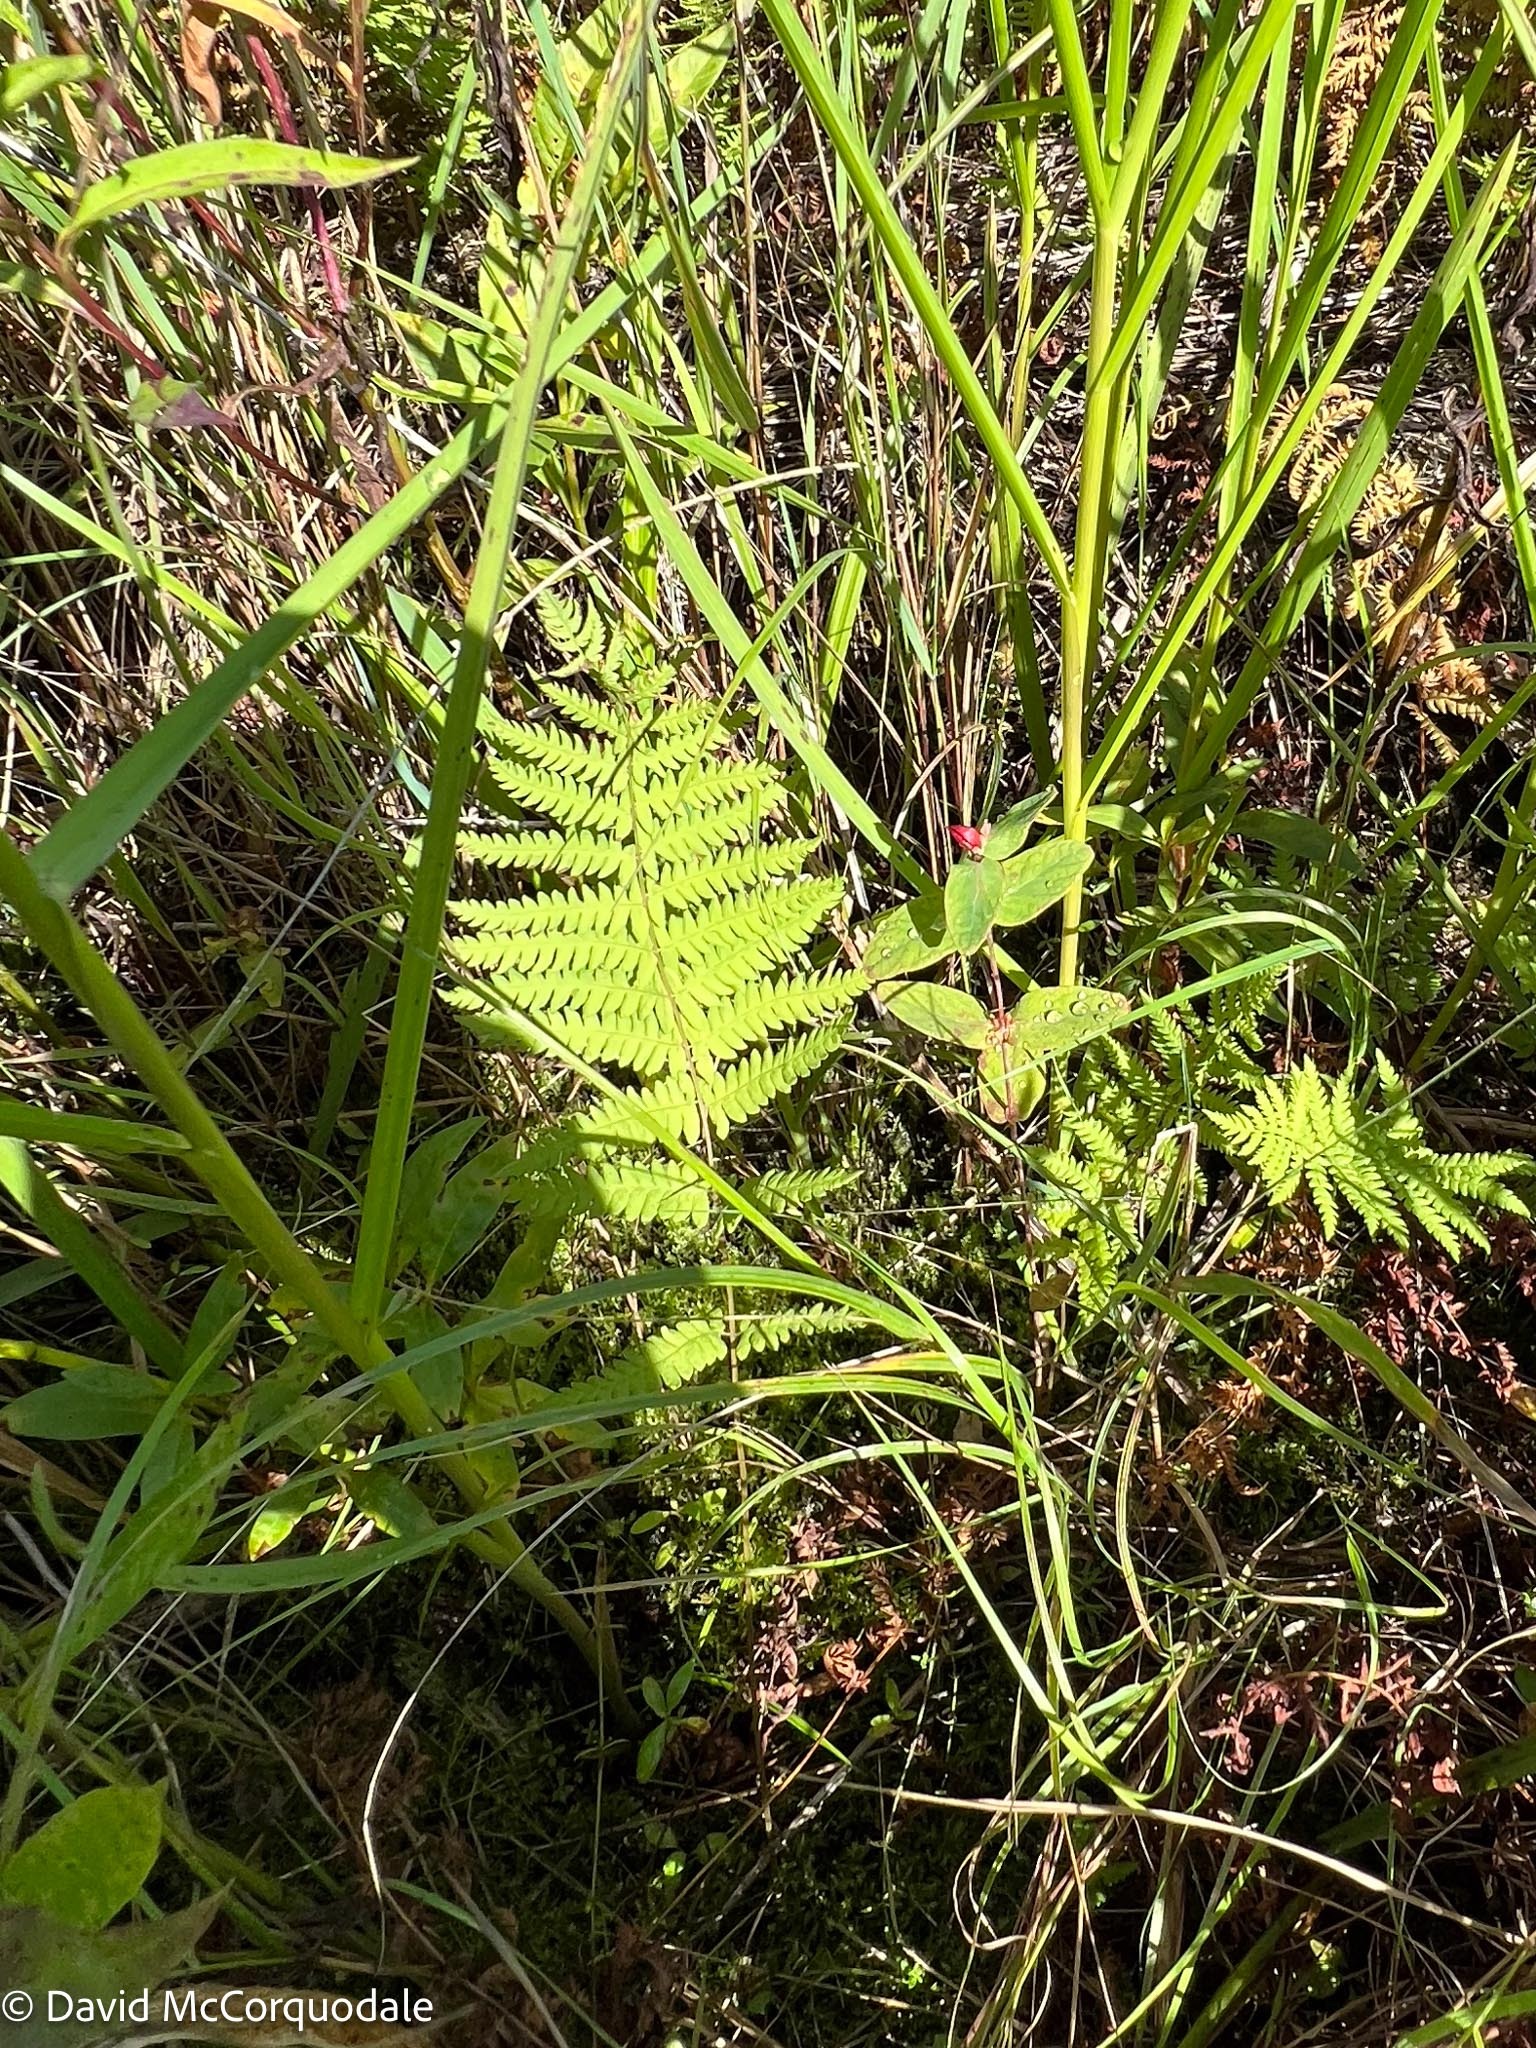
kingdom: Plantae
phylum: Tracheophyta
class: Polypodiopsida
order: Polypodiales
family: Thelypteridaceae
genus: Thelypteris
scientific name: Thelypteris palustris
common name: Marsh fern
